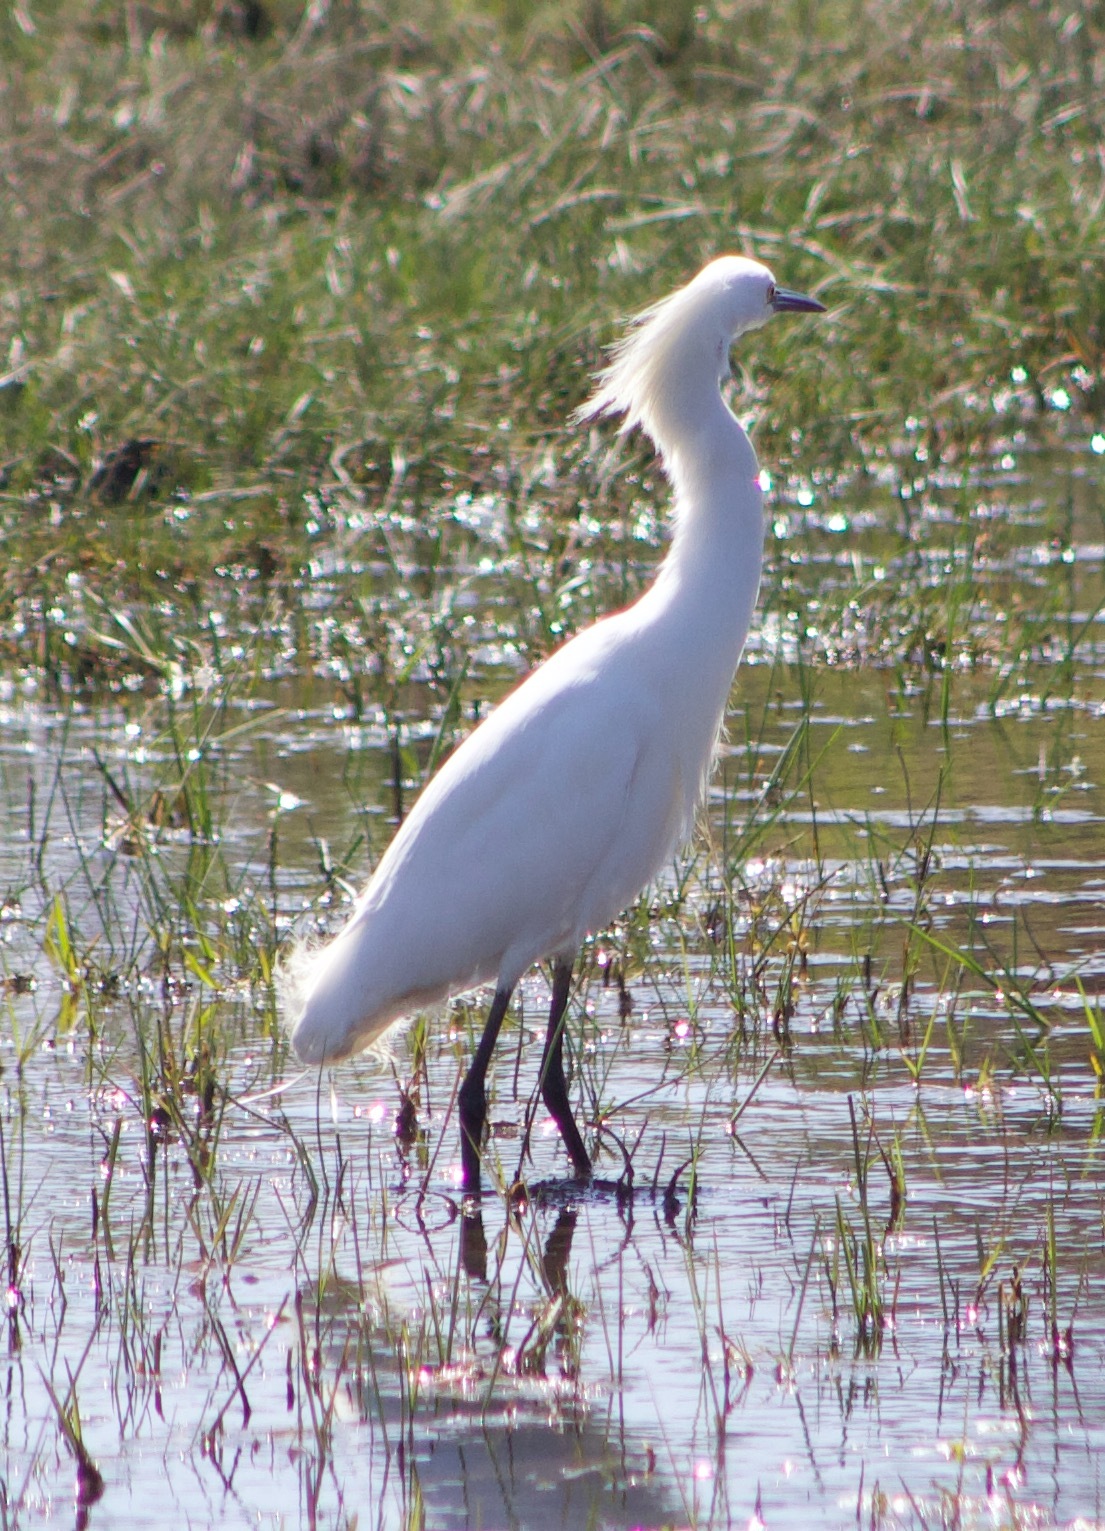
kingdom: Animalia
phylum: Chordata
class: Aves
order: Pelecaniformes
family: Ardeidae
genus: Egretta
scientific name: Egretta thula
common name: Snowy egret
